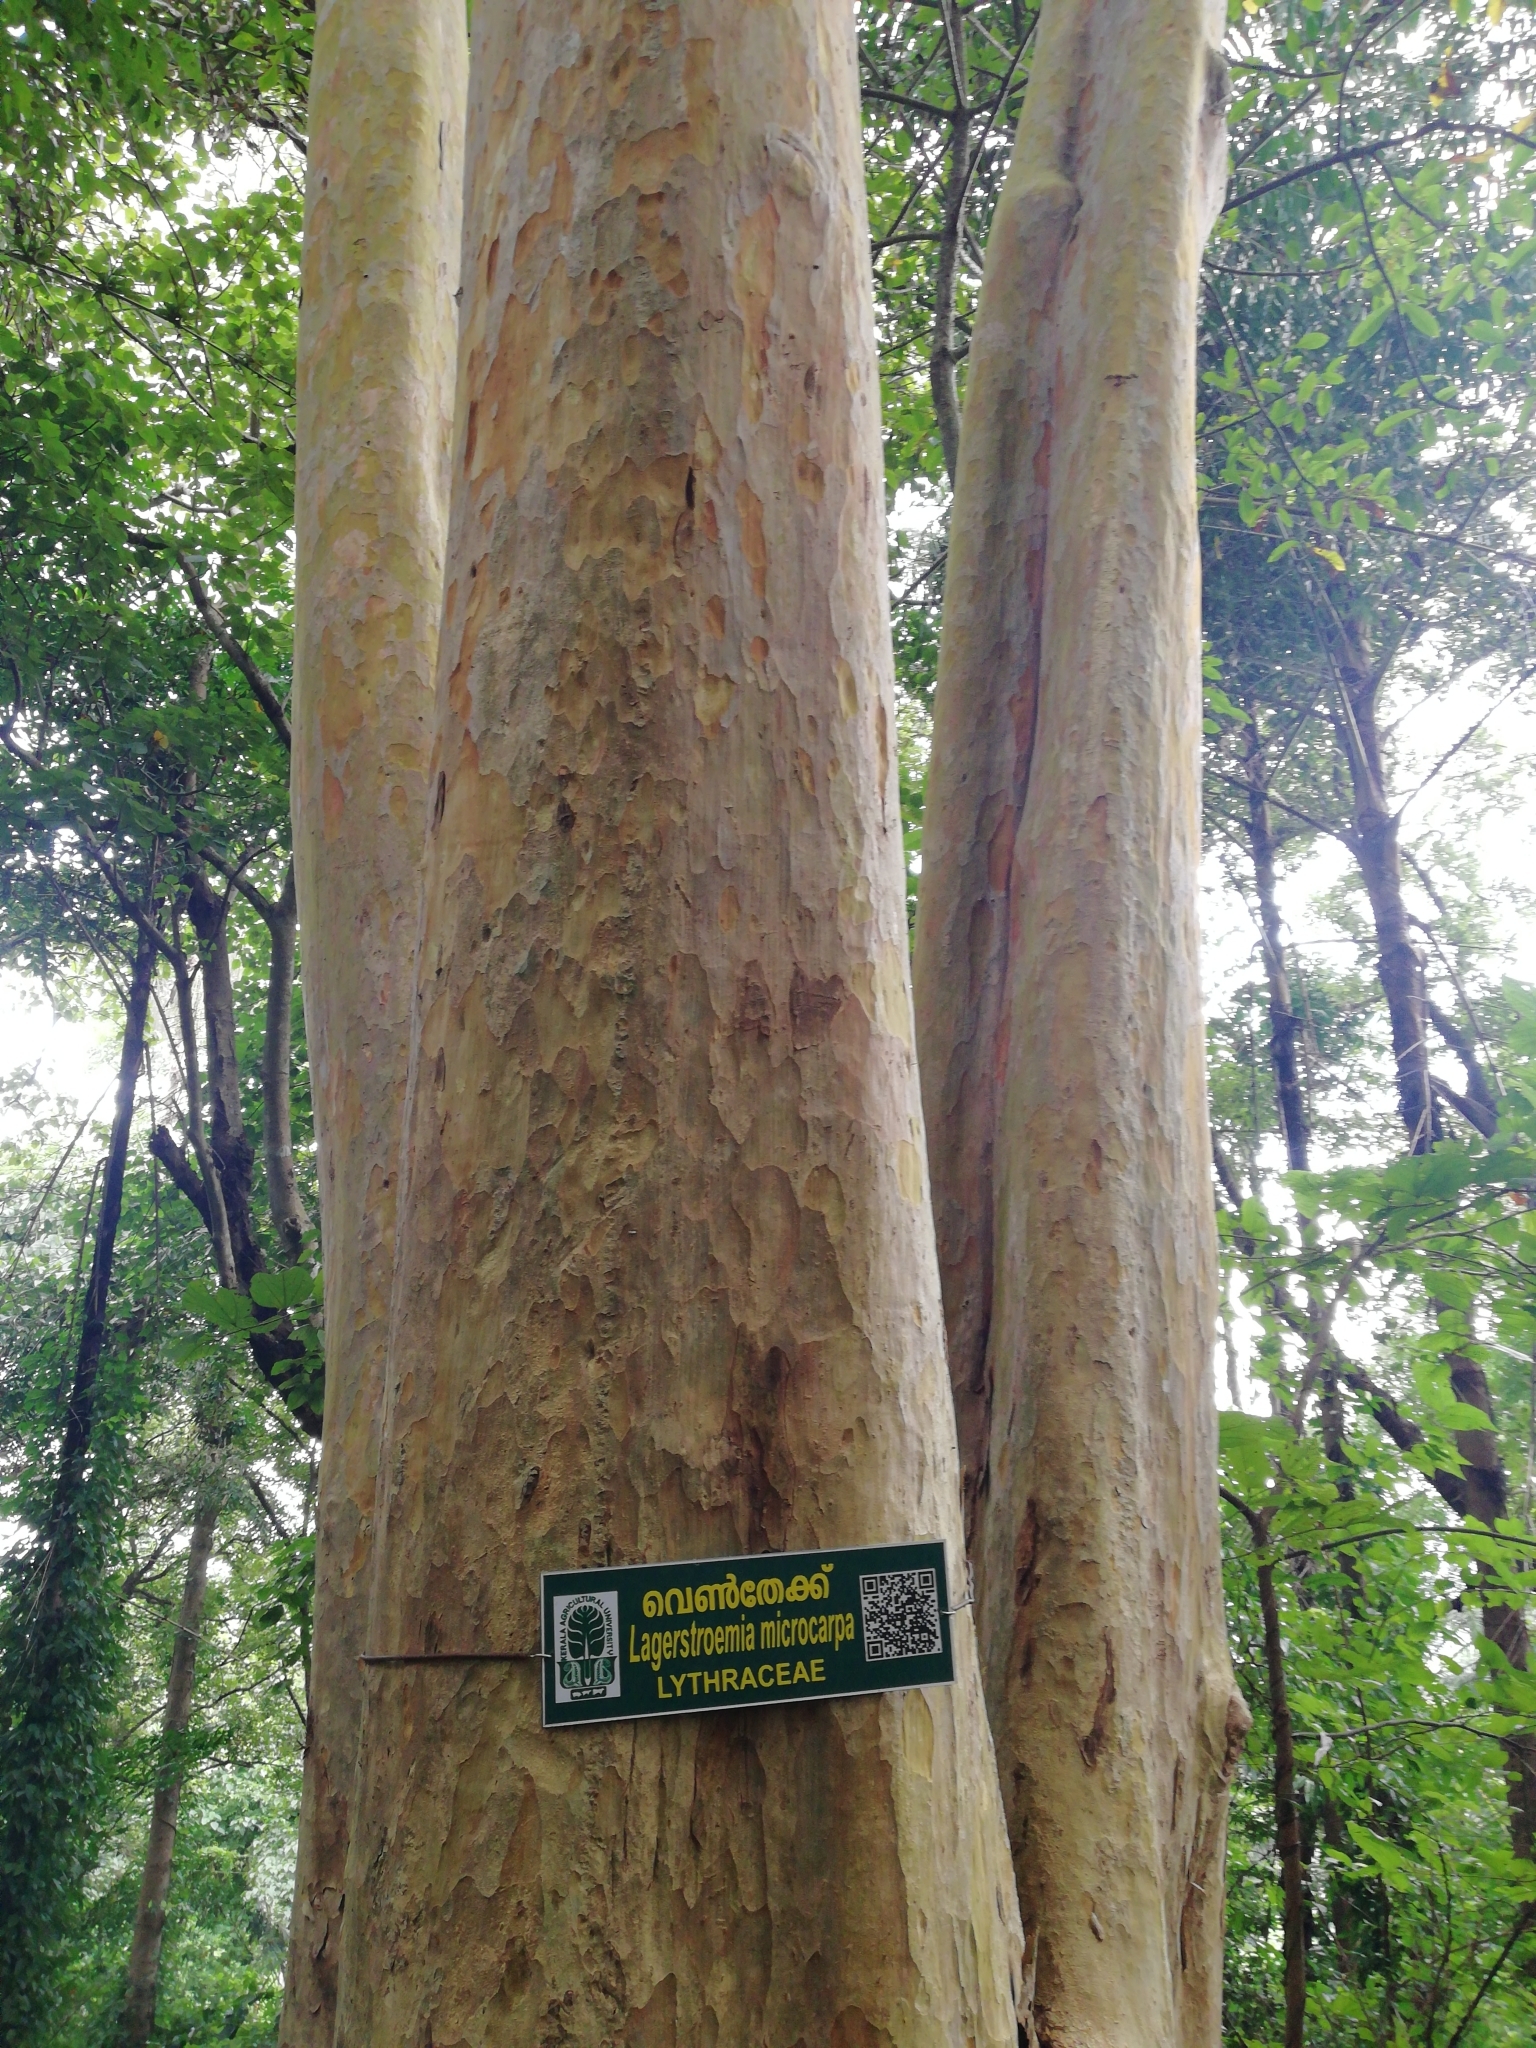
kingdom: Plantae
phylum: Tracheophyta
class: Magnoliopsida
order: Myrtales
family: Lythraceae
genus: Lagerstroemia
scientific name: Lagerstroemia microcarpa
